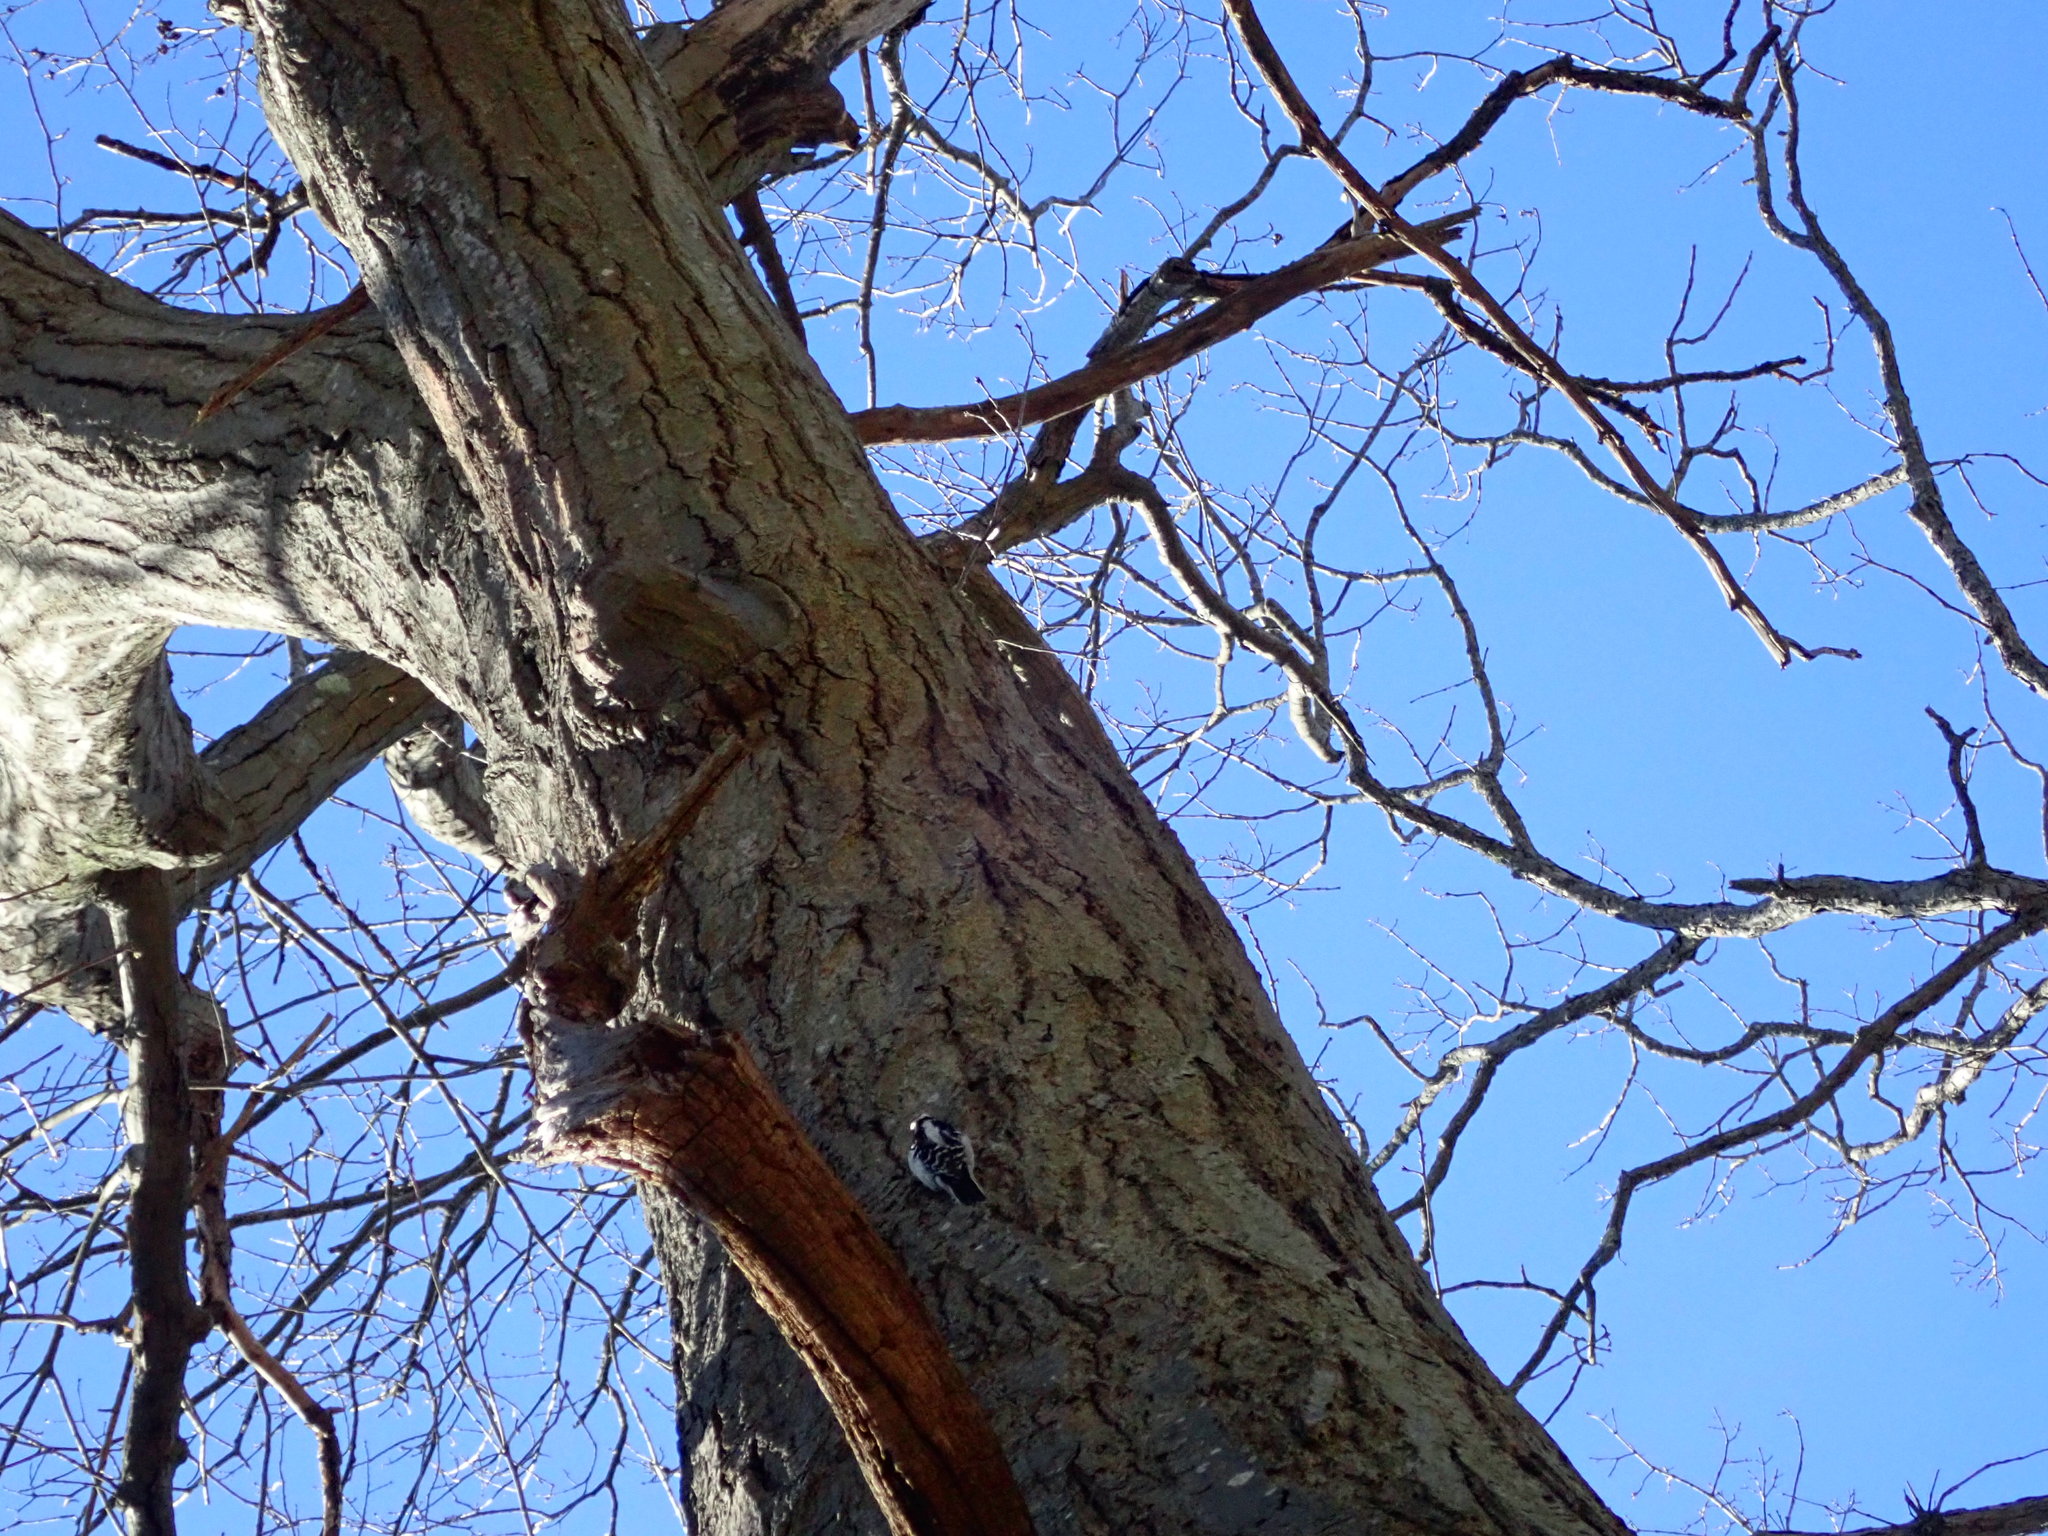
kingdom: Animalia
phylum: Chordata
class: Aves
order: Piciformes
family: Picidae
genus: Dryobates
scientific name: Dryobates pubescens
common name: Downy woodpecker
